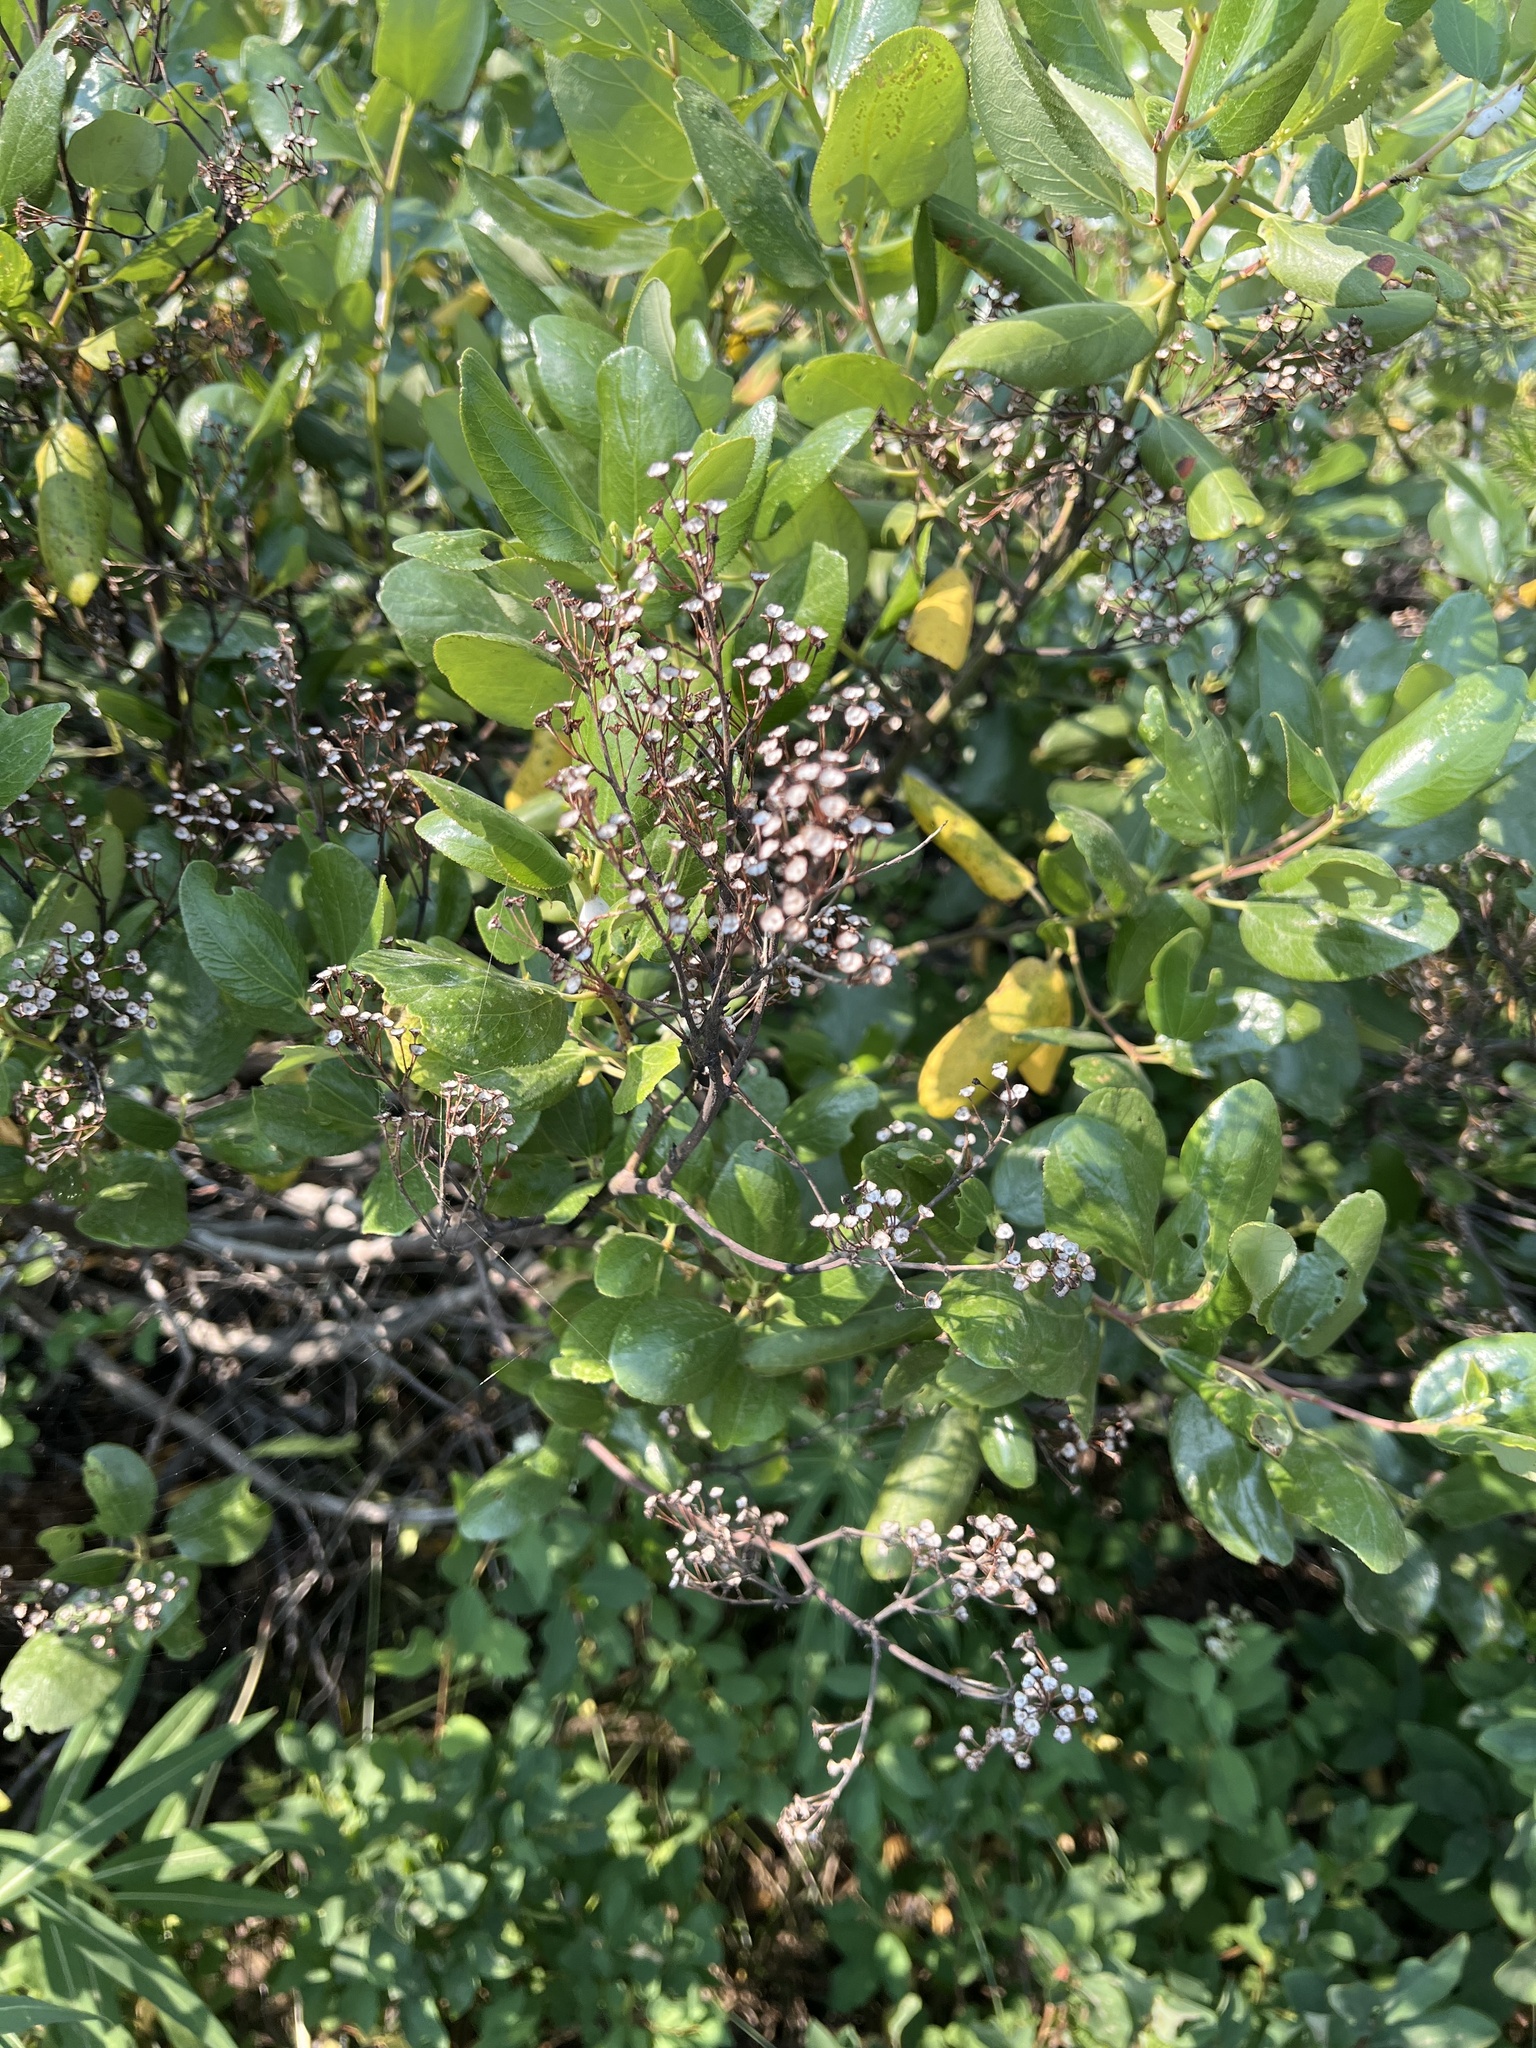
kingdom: Plantae
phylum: Tracheophyta
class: Magnoliopsida
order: Rosales
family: Rhamnaceae
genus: Ceanothus
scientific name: Ceanothus velutinus
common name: Snowbrush
